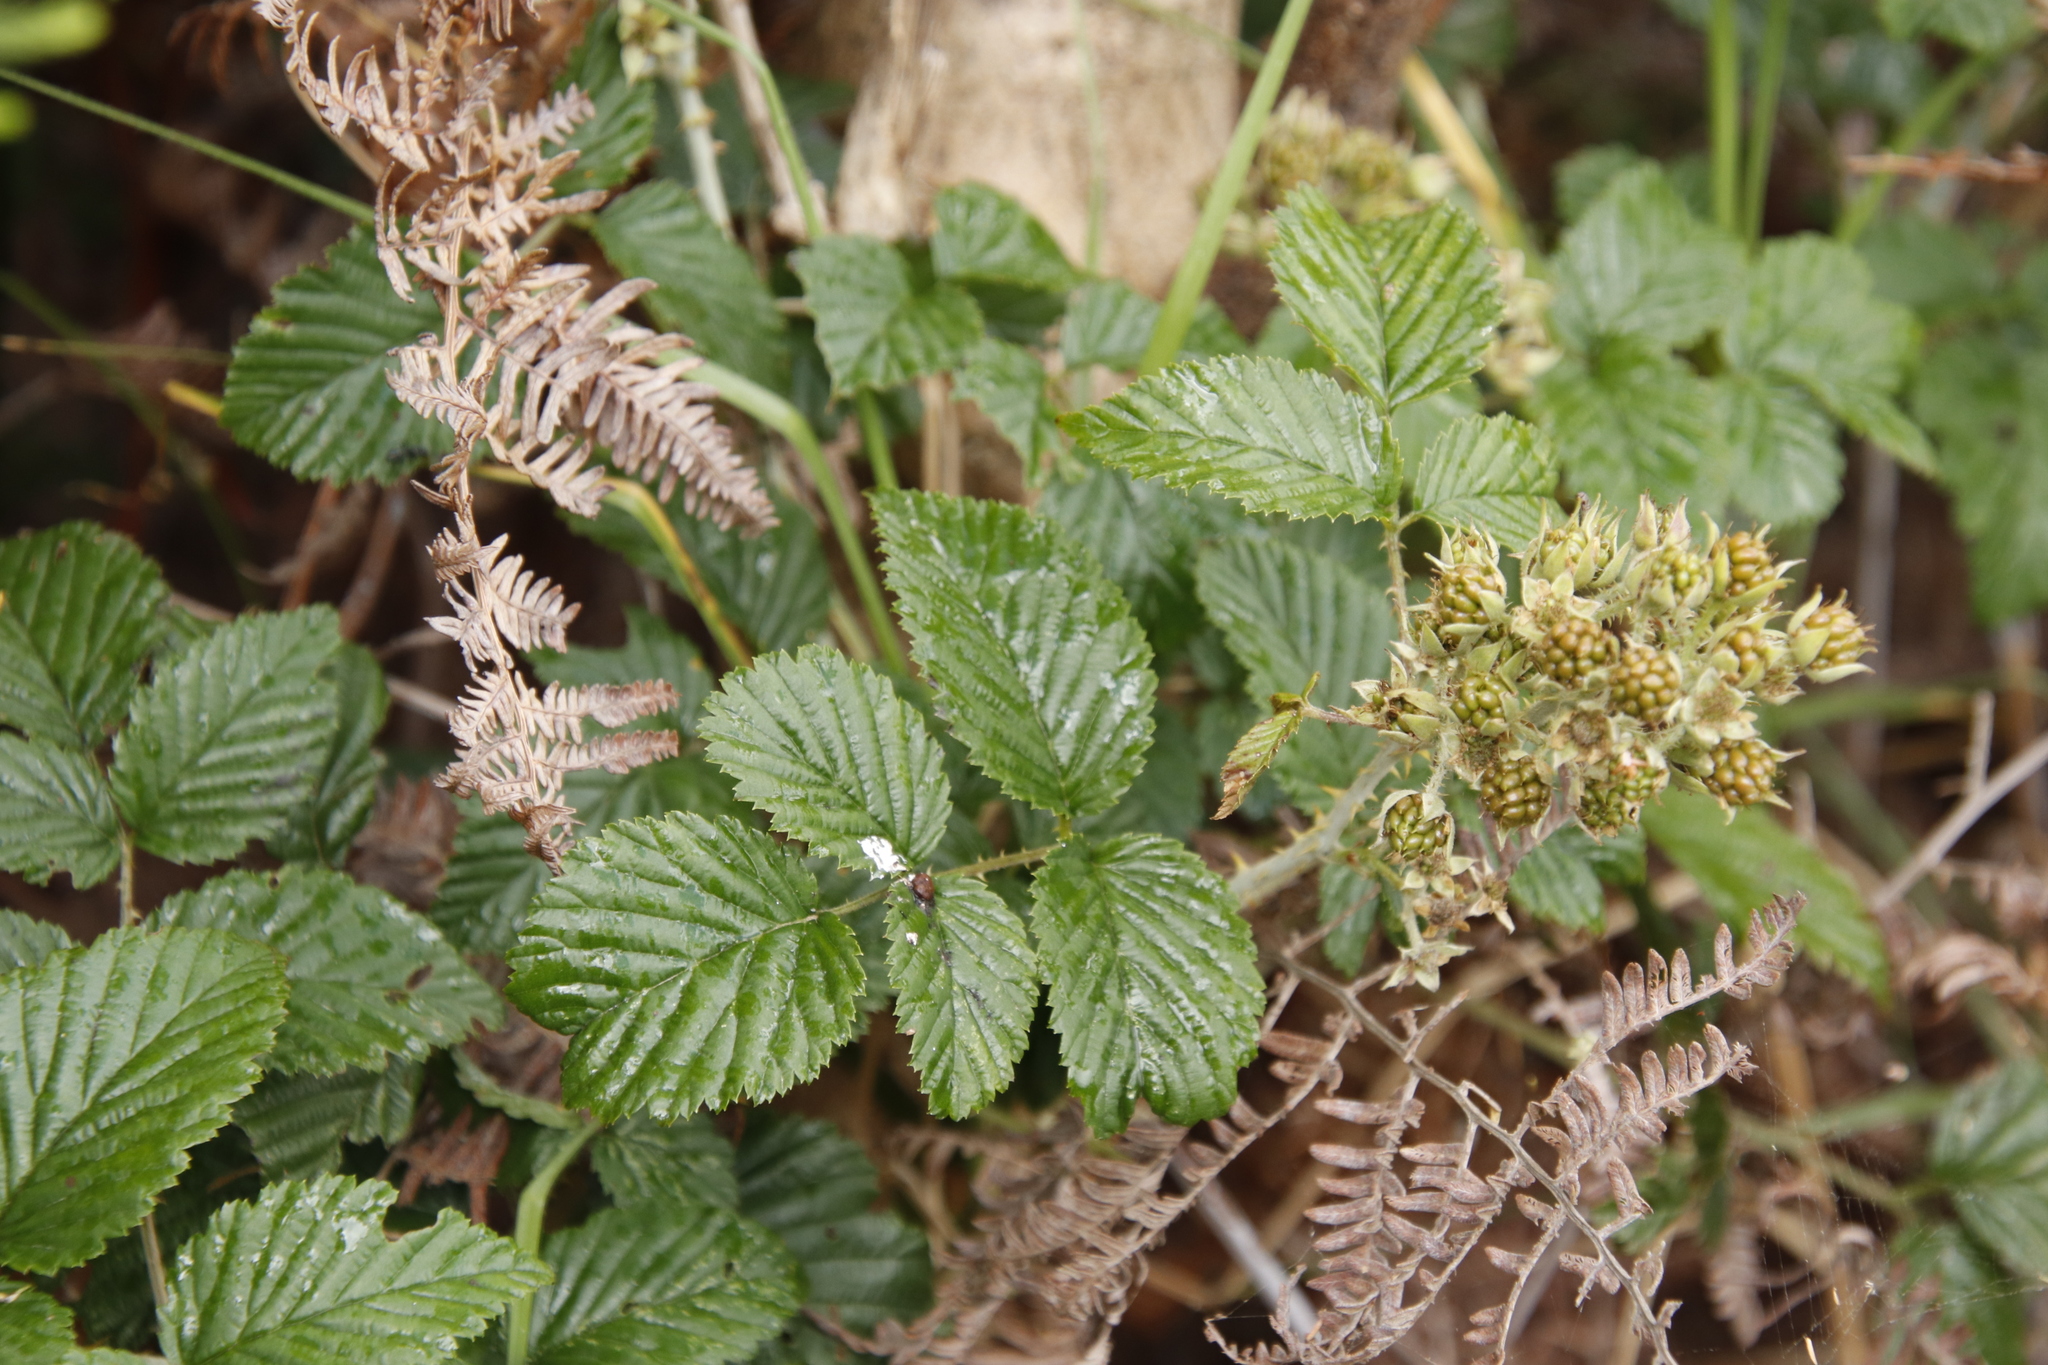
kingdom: Plantae
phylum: Tracheophyta
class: Magnoliopsida
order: Rosales
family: Rosaceae
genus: Rubus
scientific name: Rubus pinnatus
